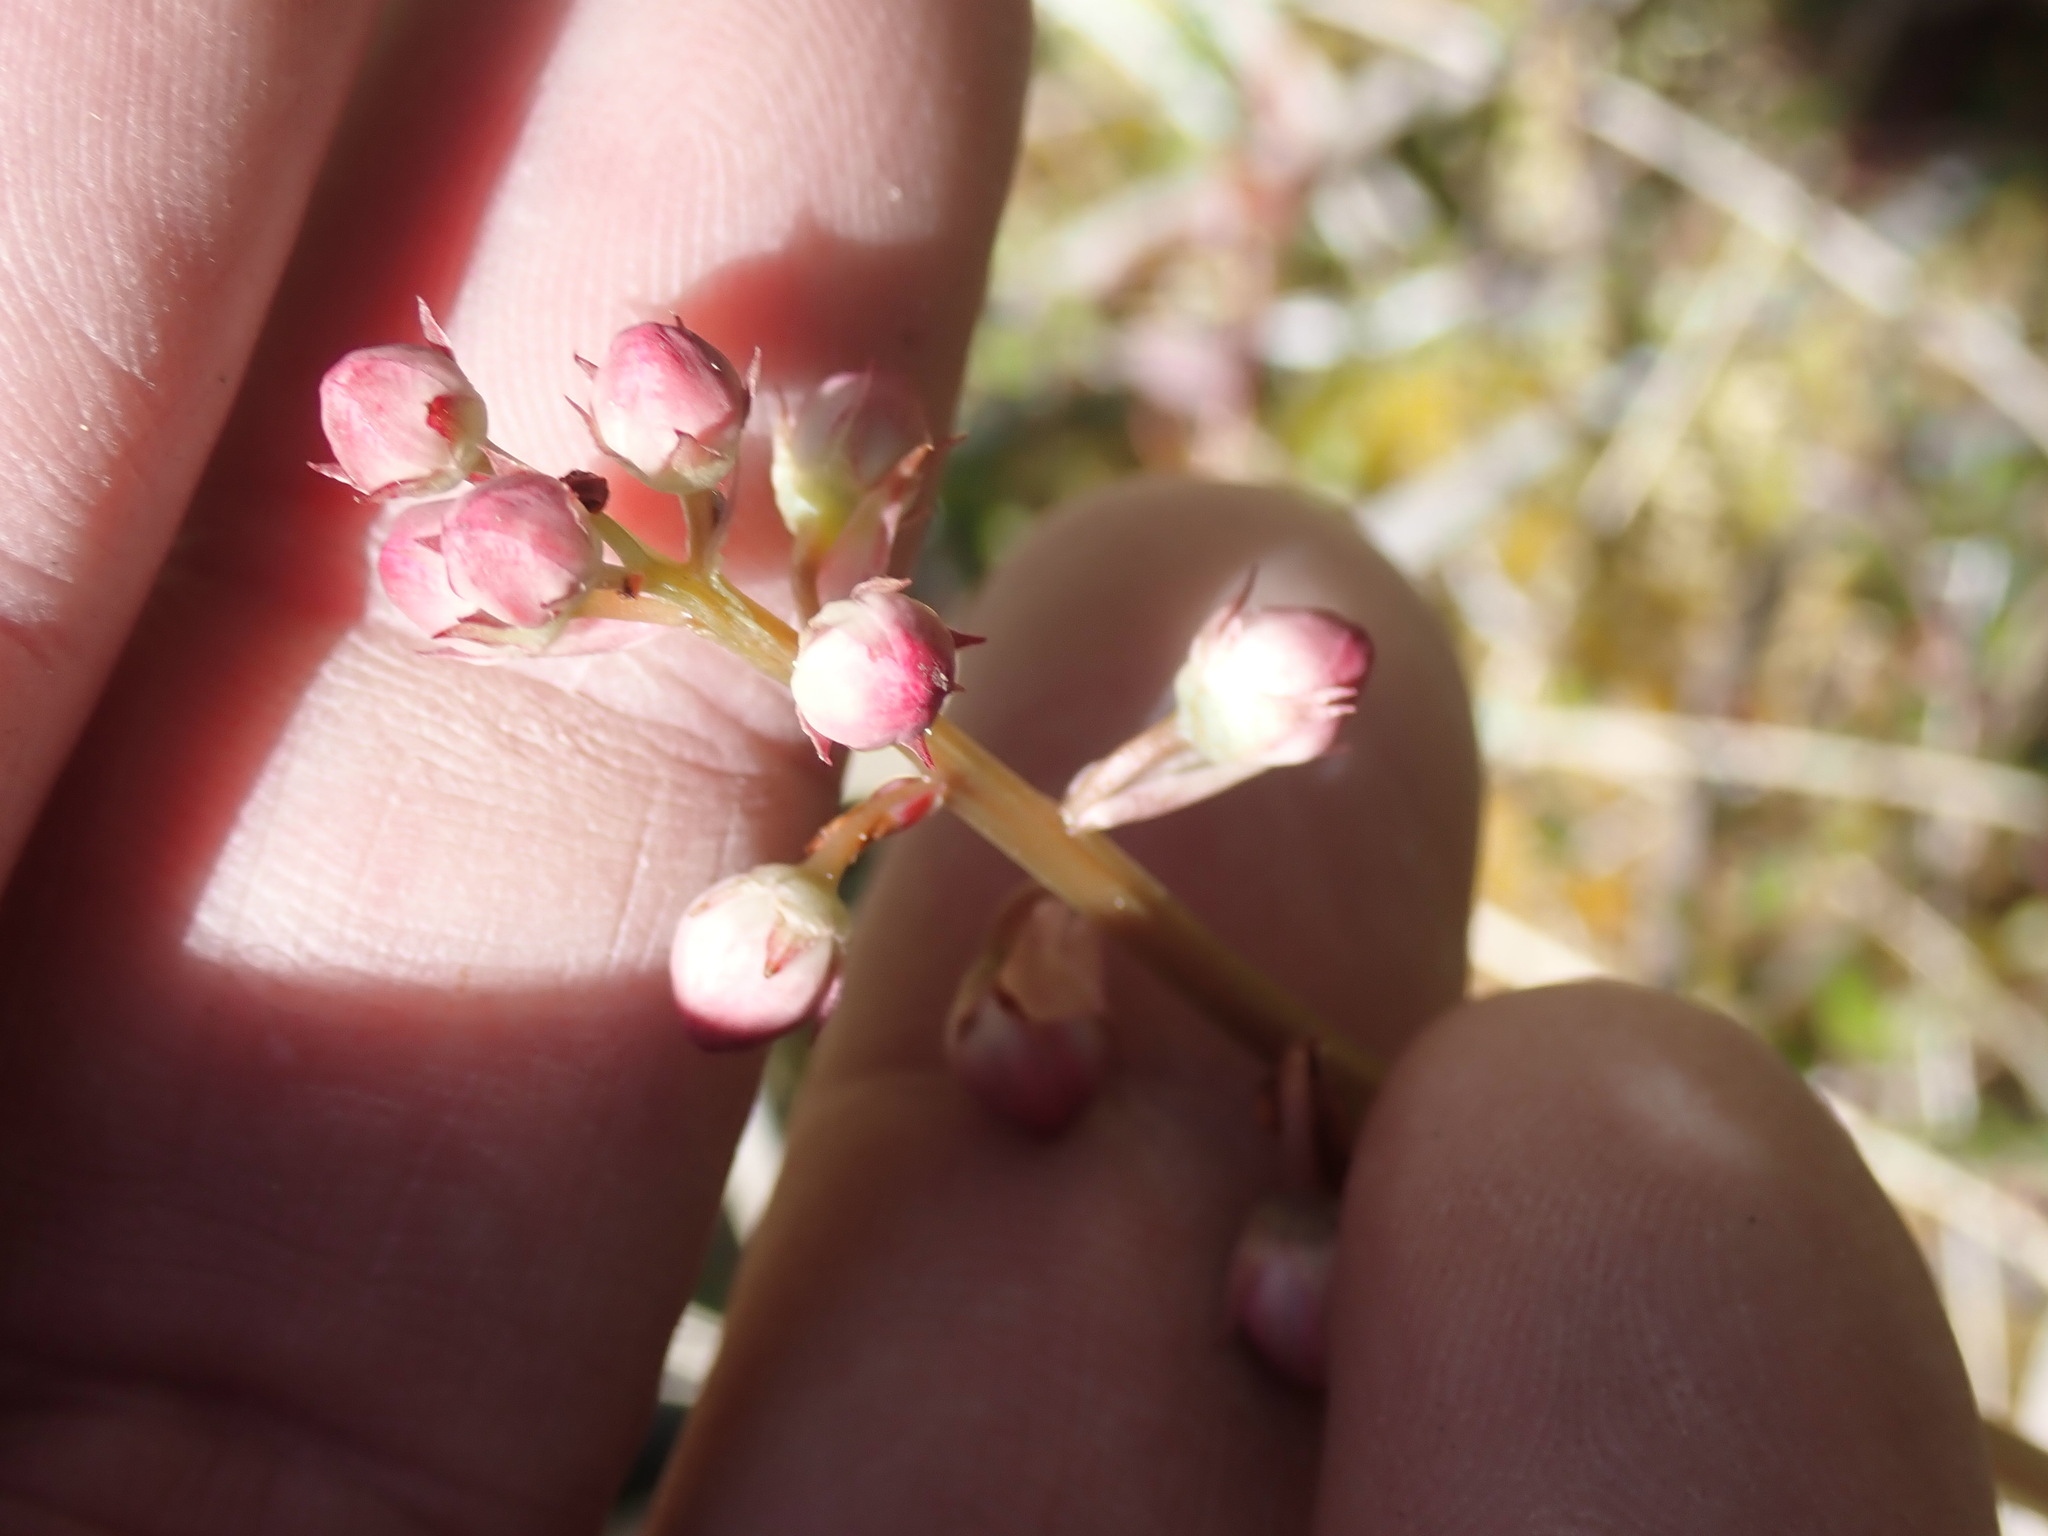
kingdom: Plantae
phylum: Tracheophyta
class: Magnoliopsida
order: Ericales
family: Ericaceae
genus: Pyrola
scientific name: Pyrola asarifolia
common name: Bog wintergreen
